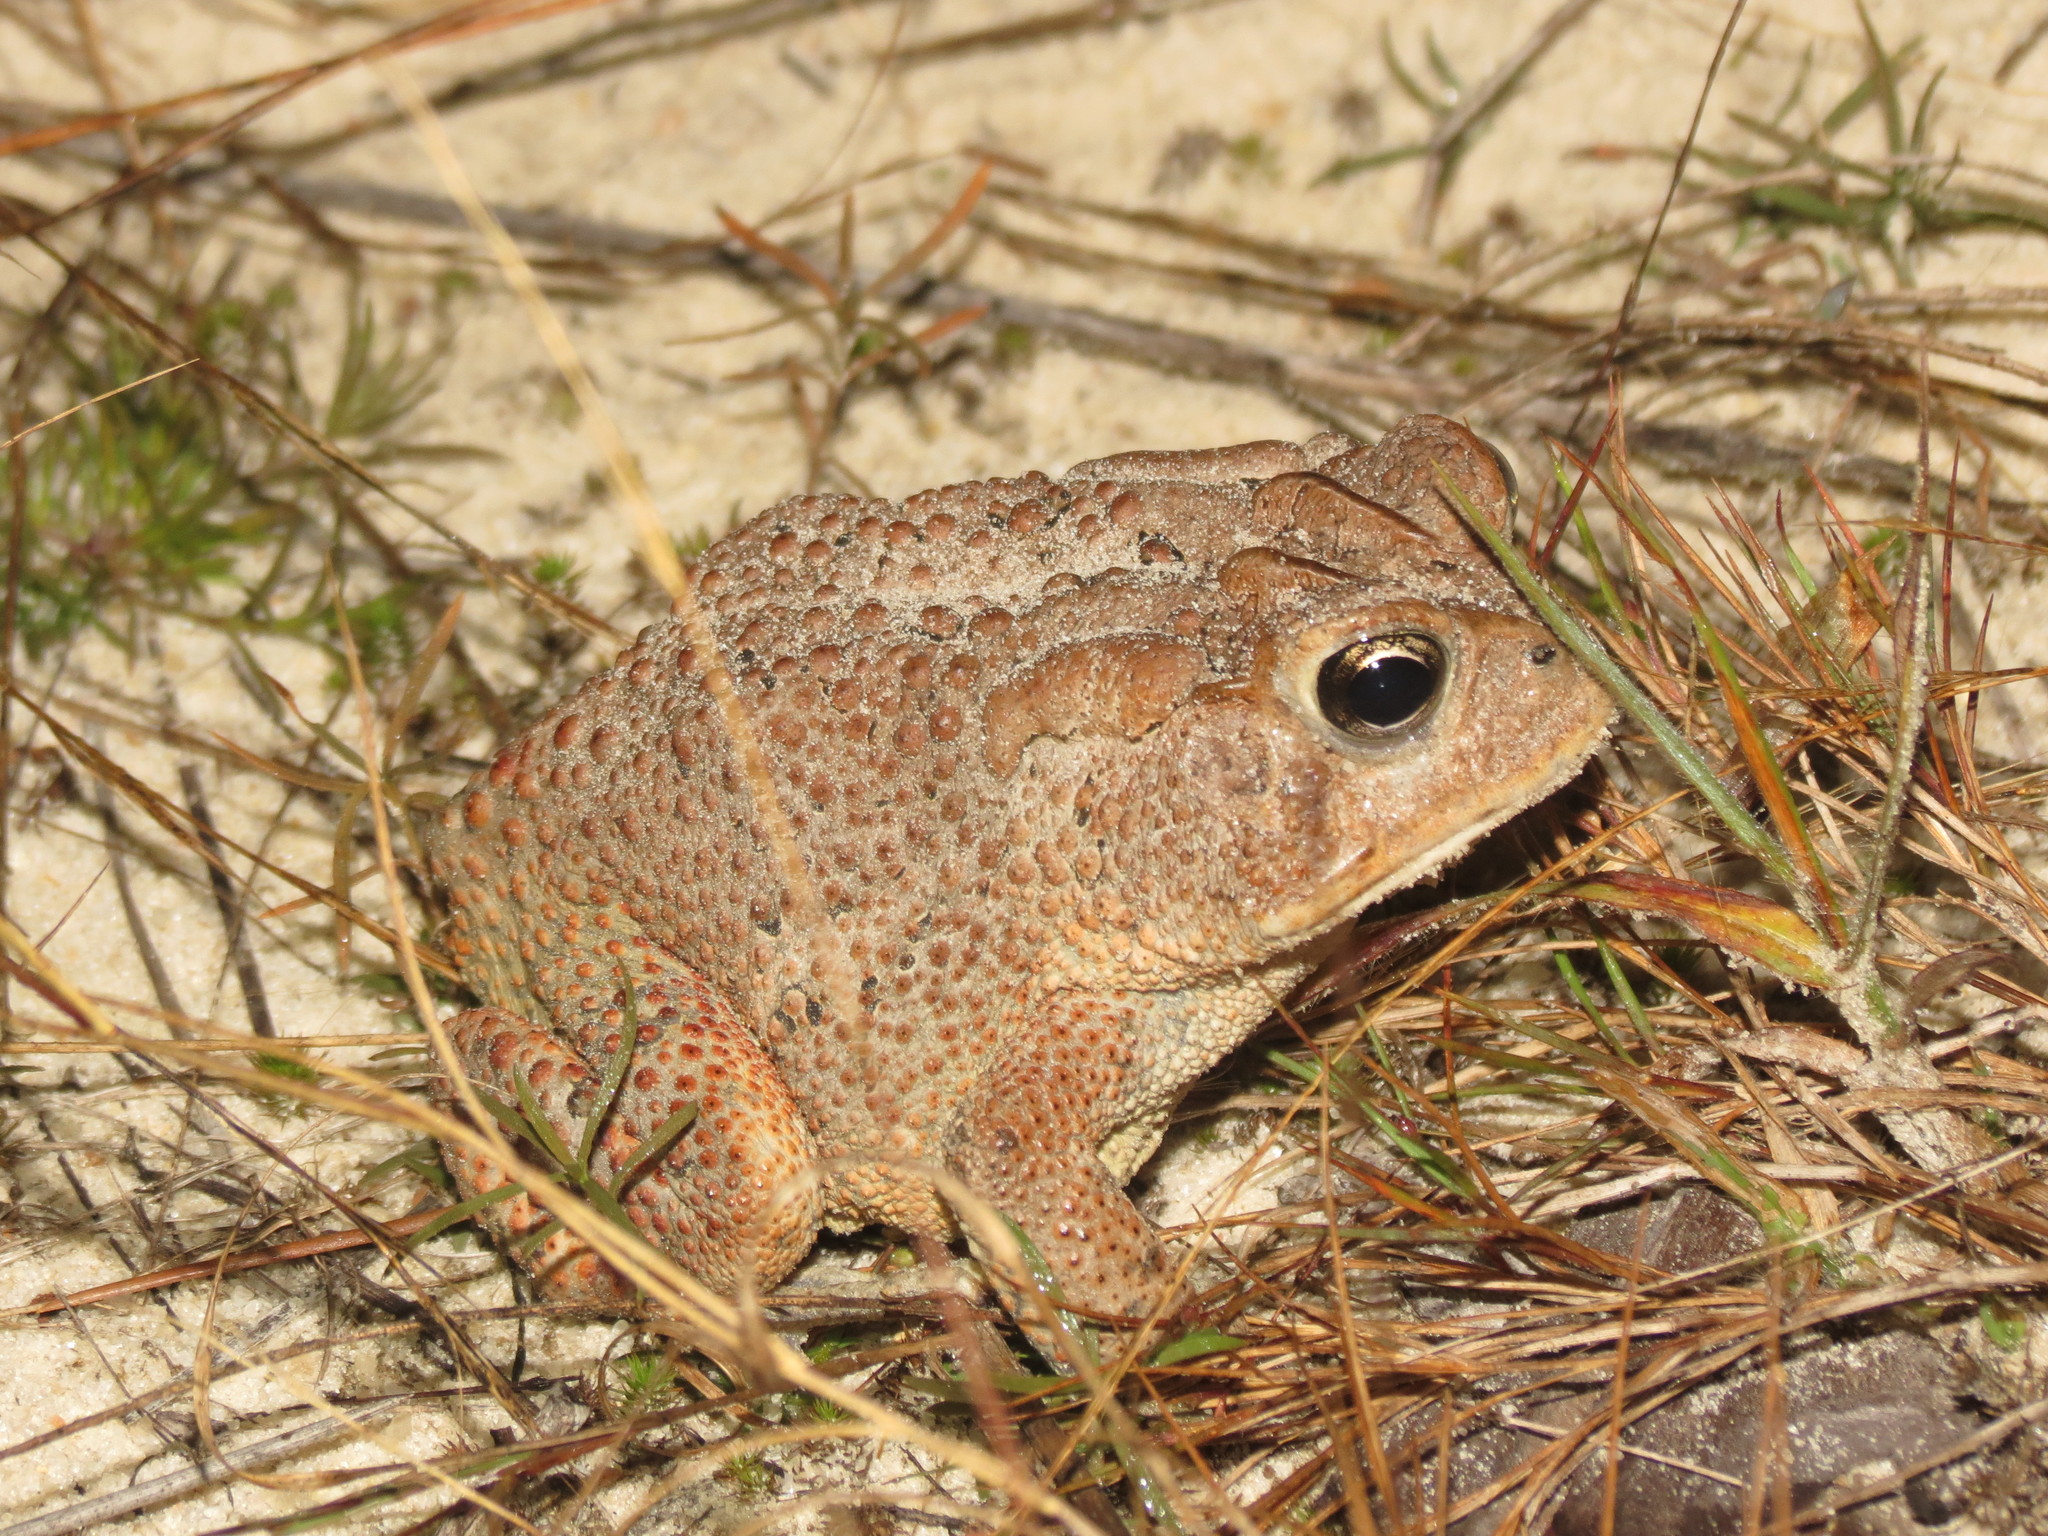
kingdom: Animalia
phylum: Chordata
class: Amphibia
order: Anura
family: Bufonidae
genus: Anaxyrus
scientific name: Anaxyrus terrestris
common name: Southern toad
